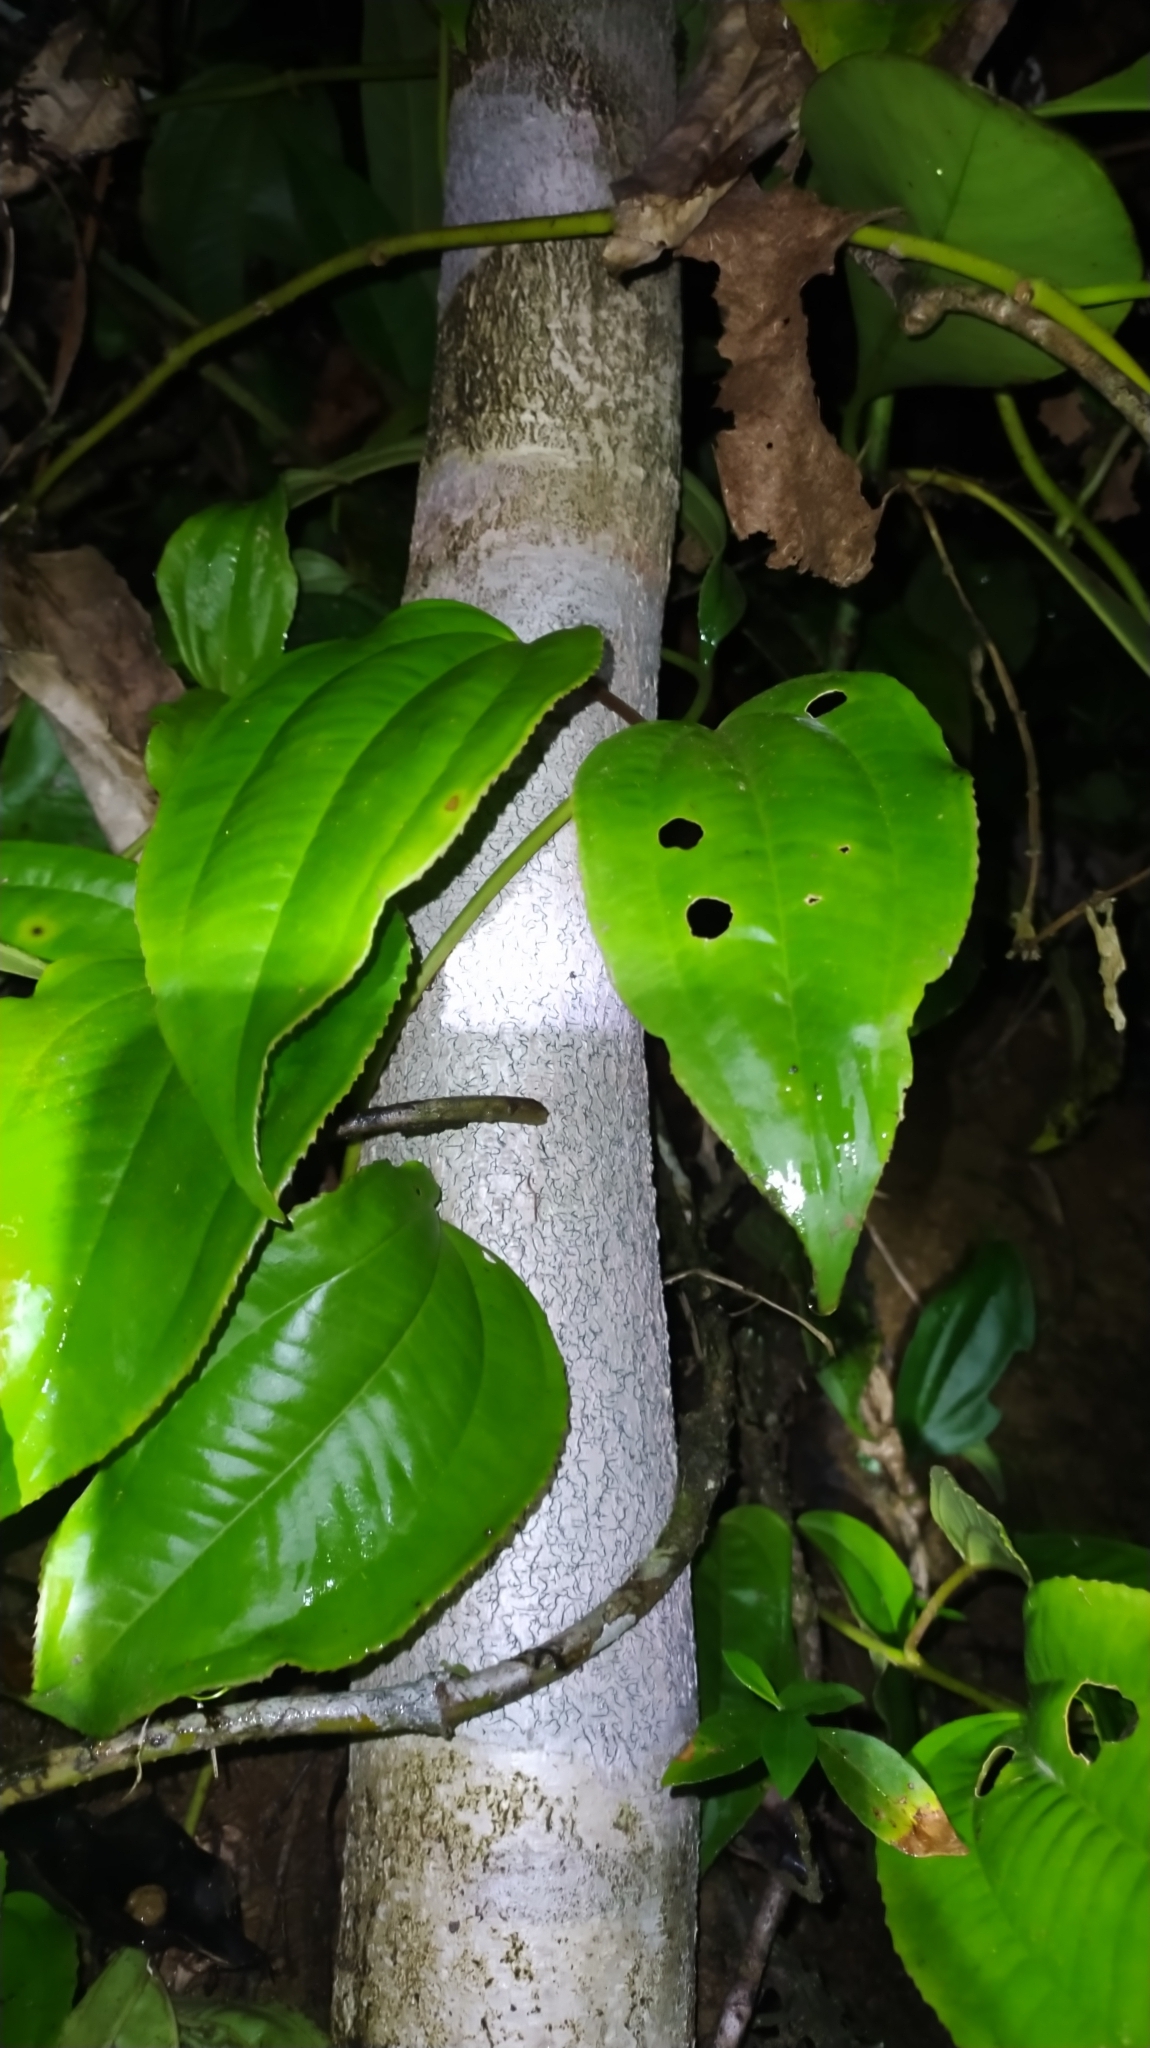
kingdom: Plantae
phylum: Tracheophyta
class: Magnoliopsida
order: Myrtales
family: Melastomataceae
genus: Adelobotrys
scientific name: Adelobotrys adscendens
